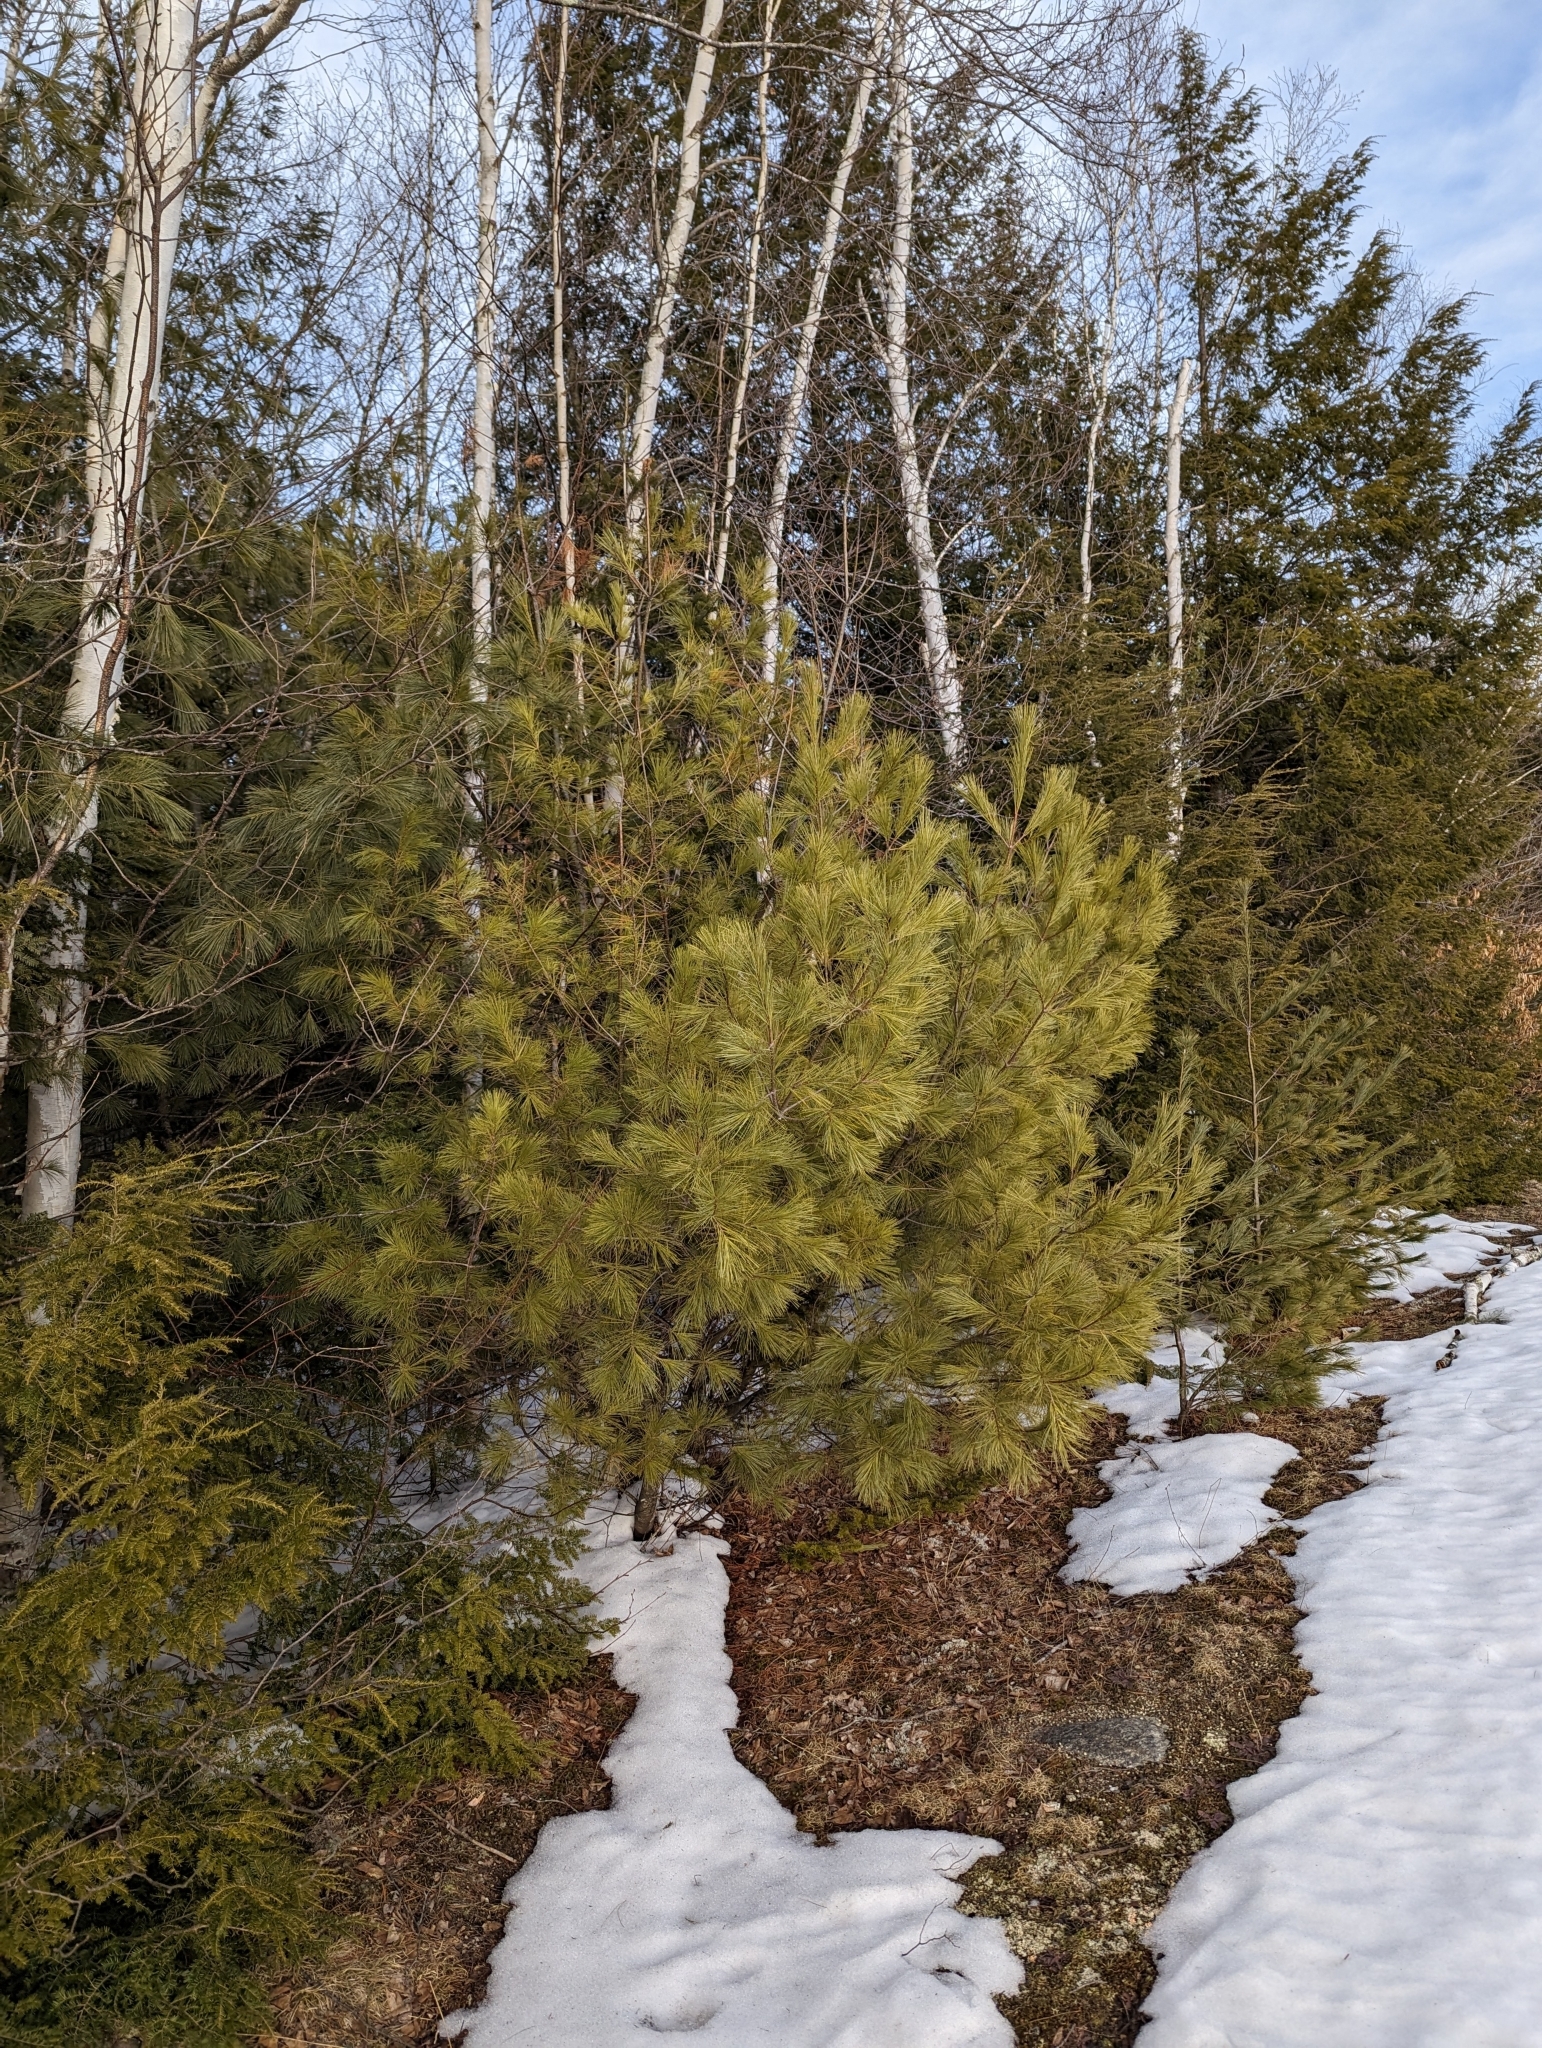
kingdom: Plantae
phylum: Tracheophyta
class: Pinopsida
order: Pinales
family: Pinaceae
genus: Pinus
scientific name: Pinus strobus
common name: Weymouth pine
